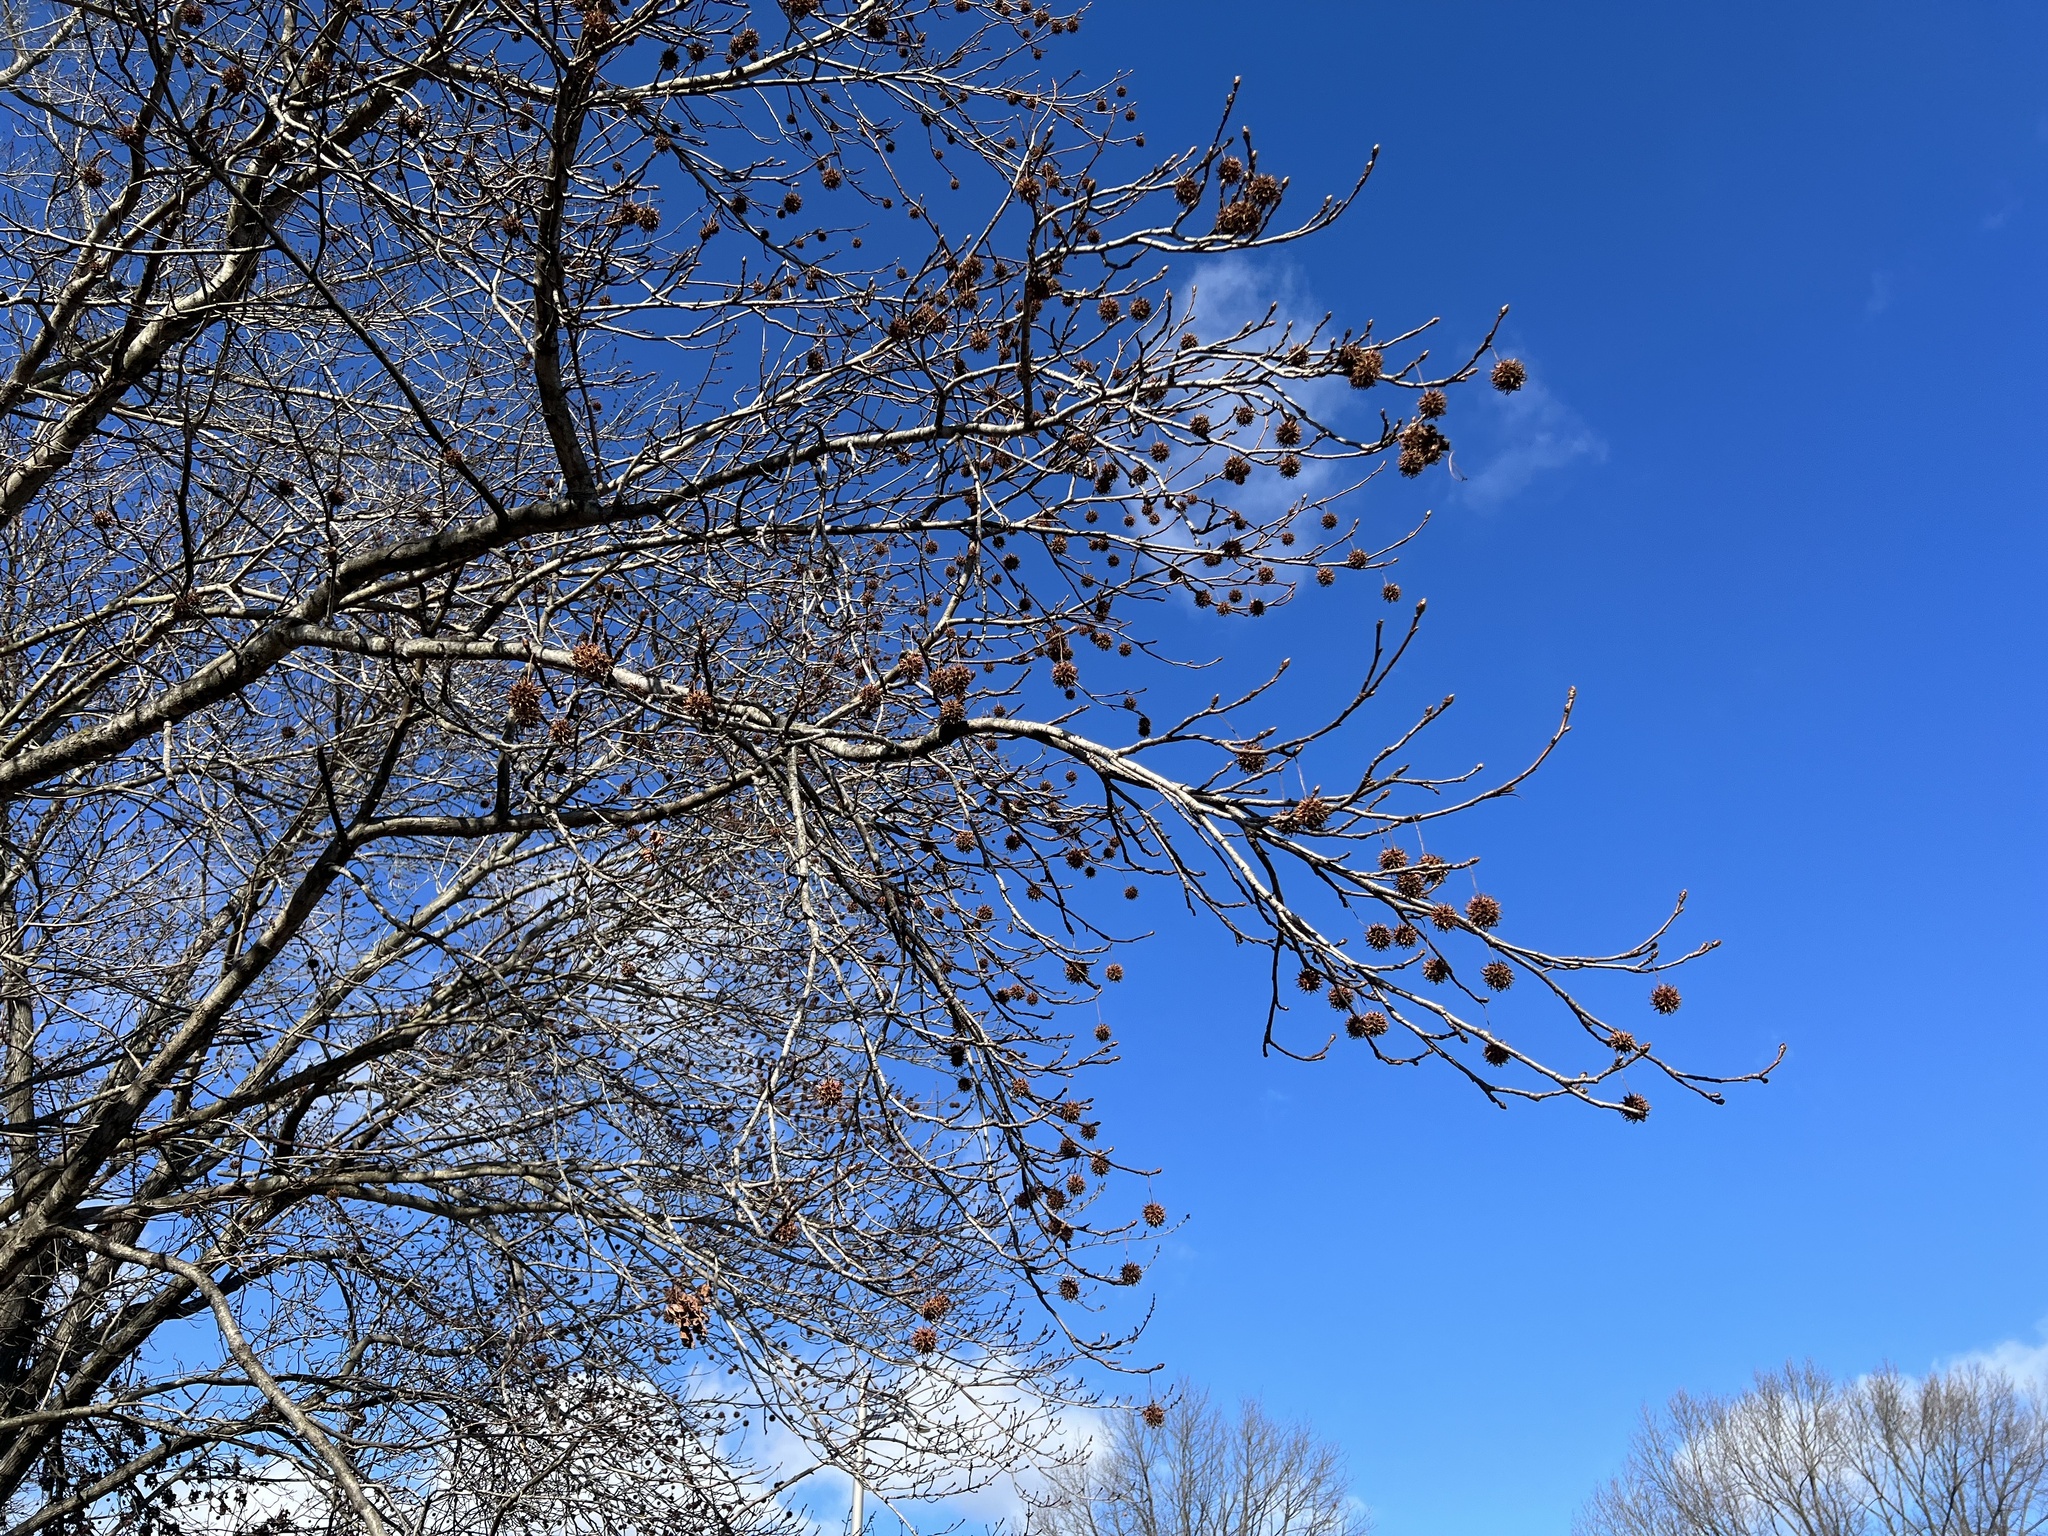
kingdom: Plantae
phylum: Tracheophyta
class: Magnoliopsida
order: Saxifragales
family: Altingiaceae
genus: Liquidambar
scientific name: Liquidambar styraciflua
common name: Sweet gum
